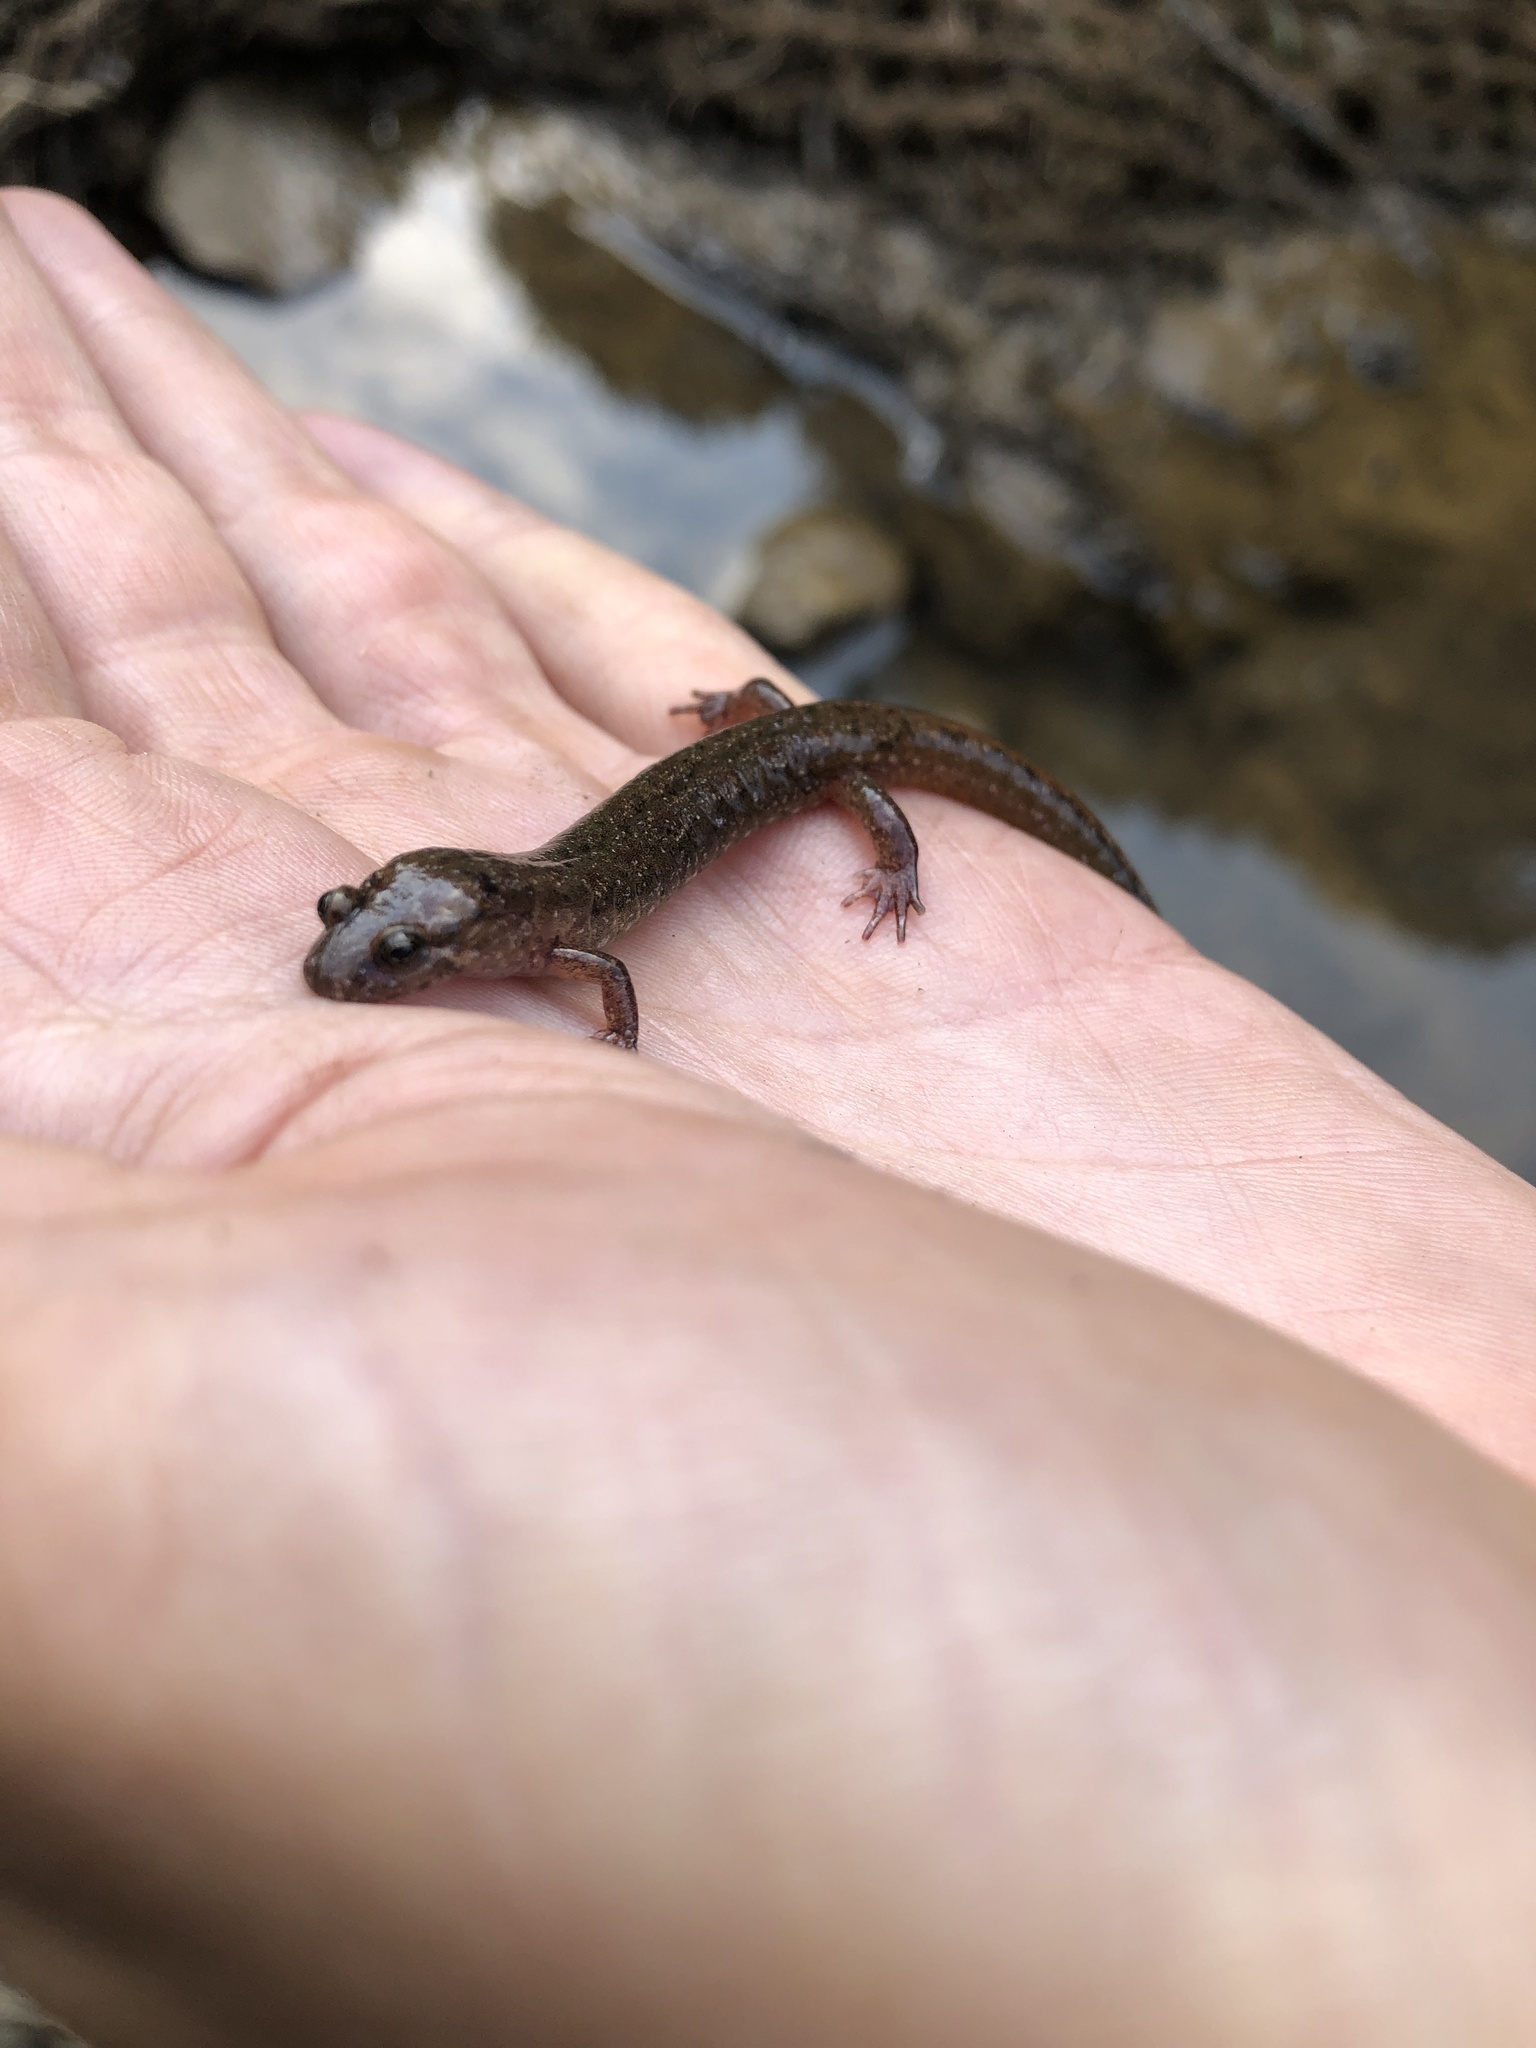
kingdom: Animalia
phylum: Chordata
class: Amphibia
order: Caudata
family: Plethodontidae
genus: Desmognathus
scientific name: Desmognathus fuscus
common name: Northern dusky salamander
